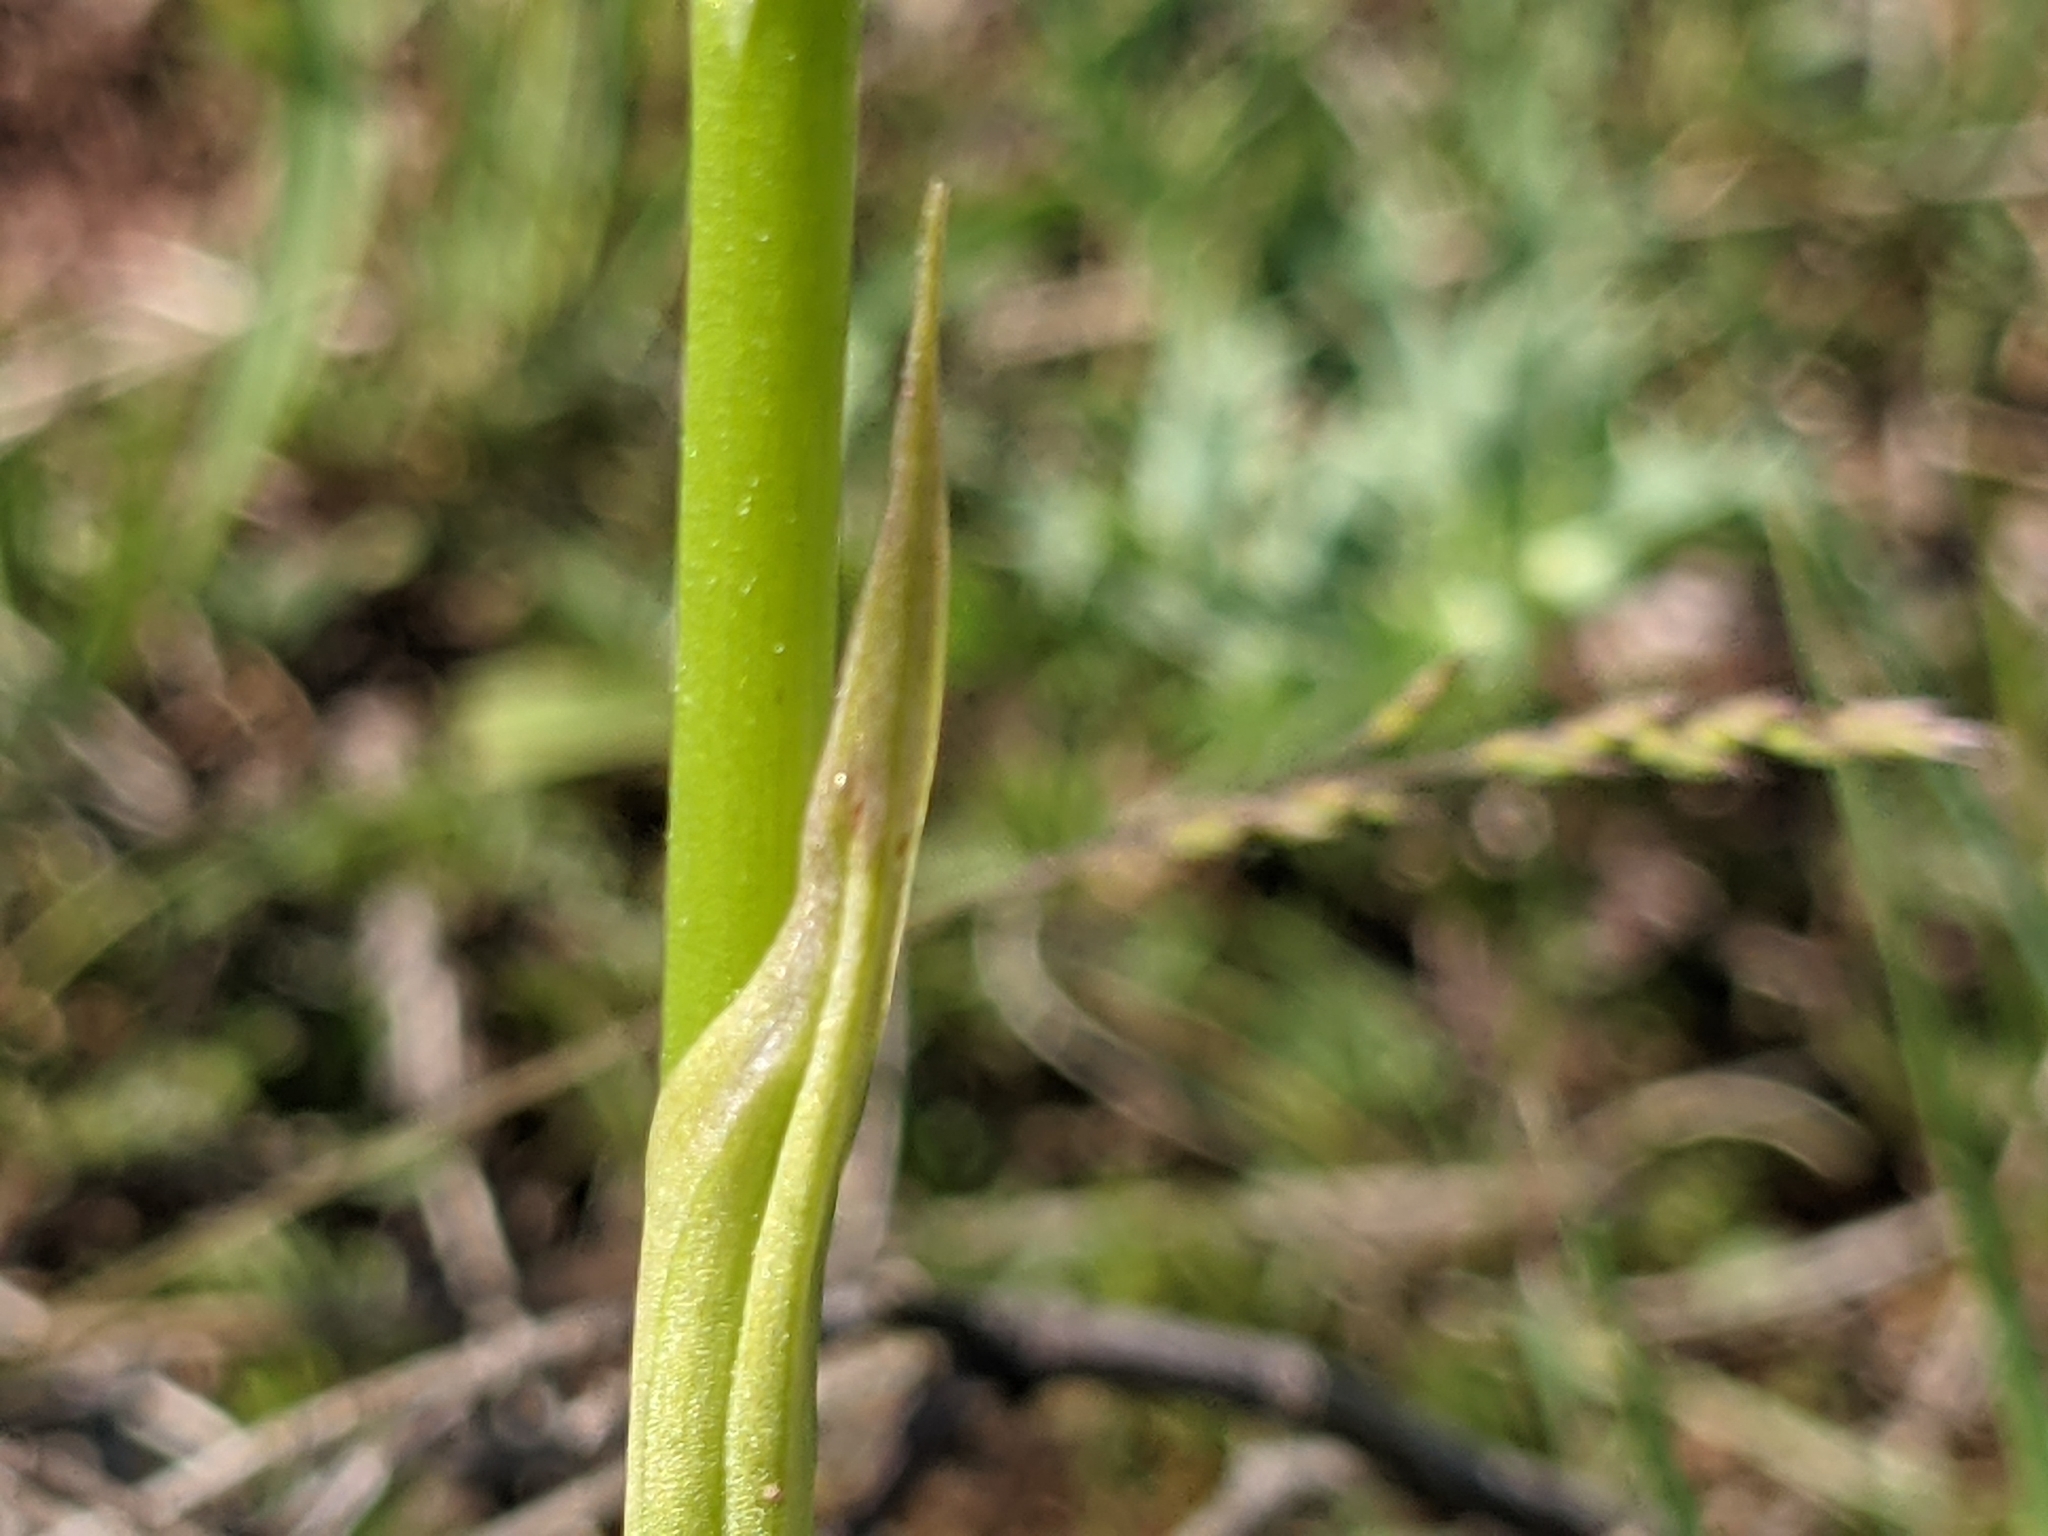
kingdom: Plantae
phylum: Tracheophyta
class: Liliopsida
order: Asparagales
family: Orchidaceae
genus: Anacamptis
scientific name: Anacamptis pyramidalis
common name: Pyramidal orchid
